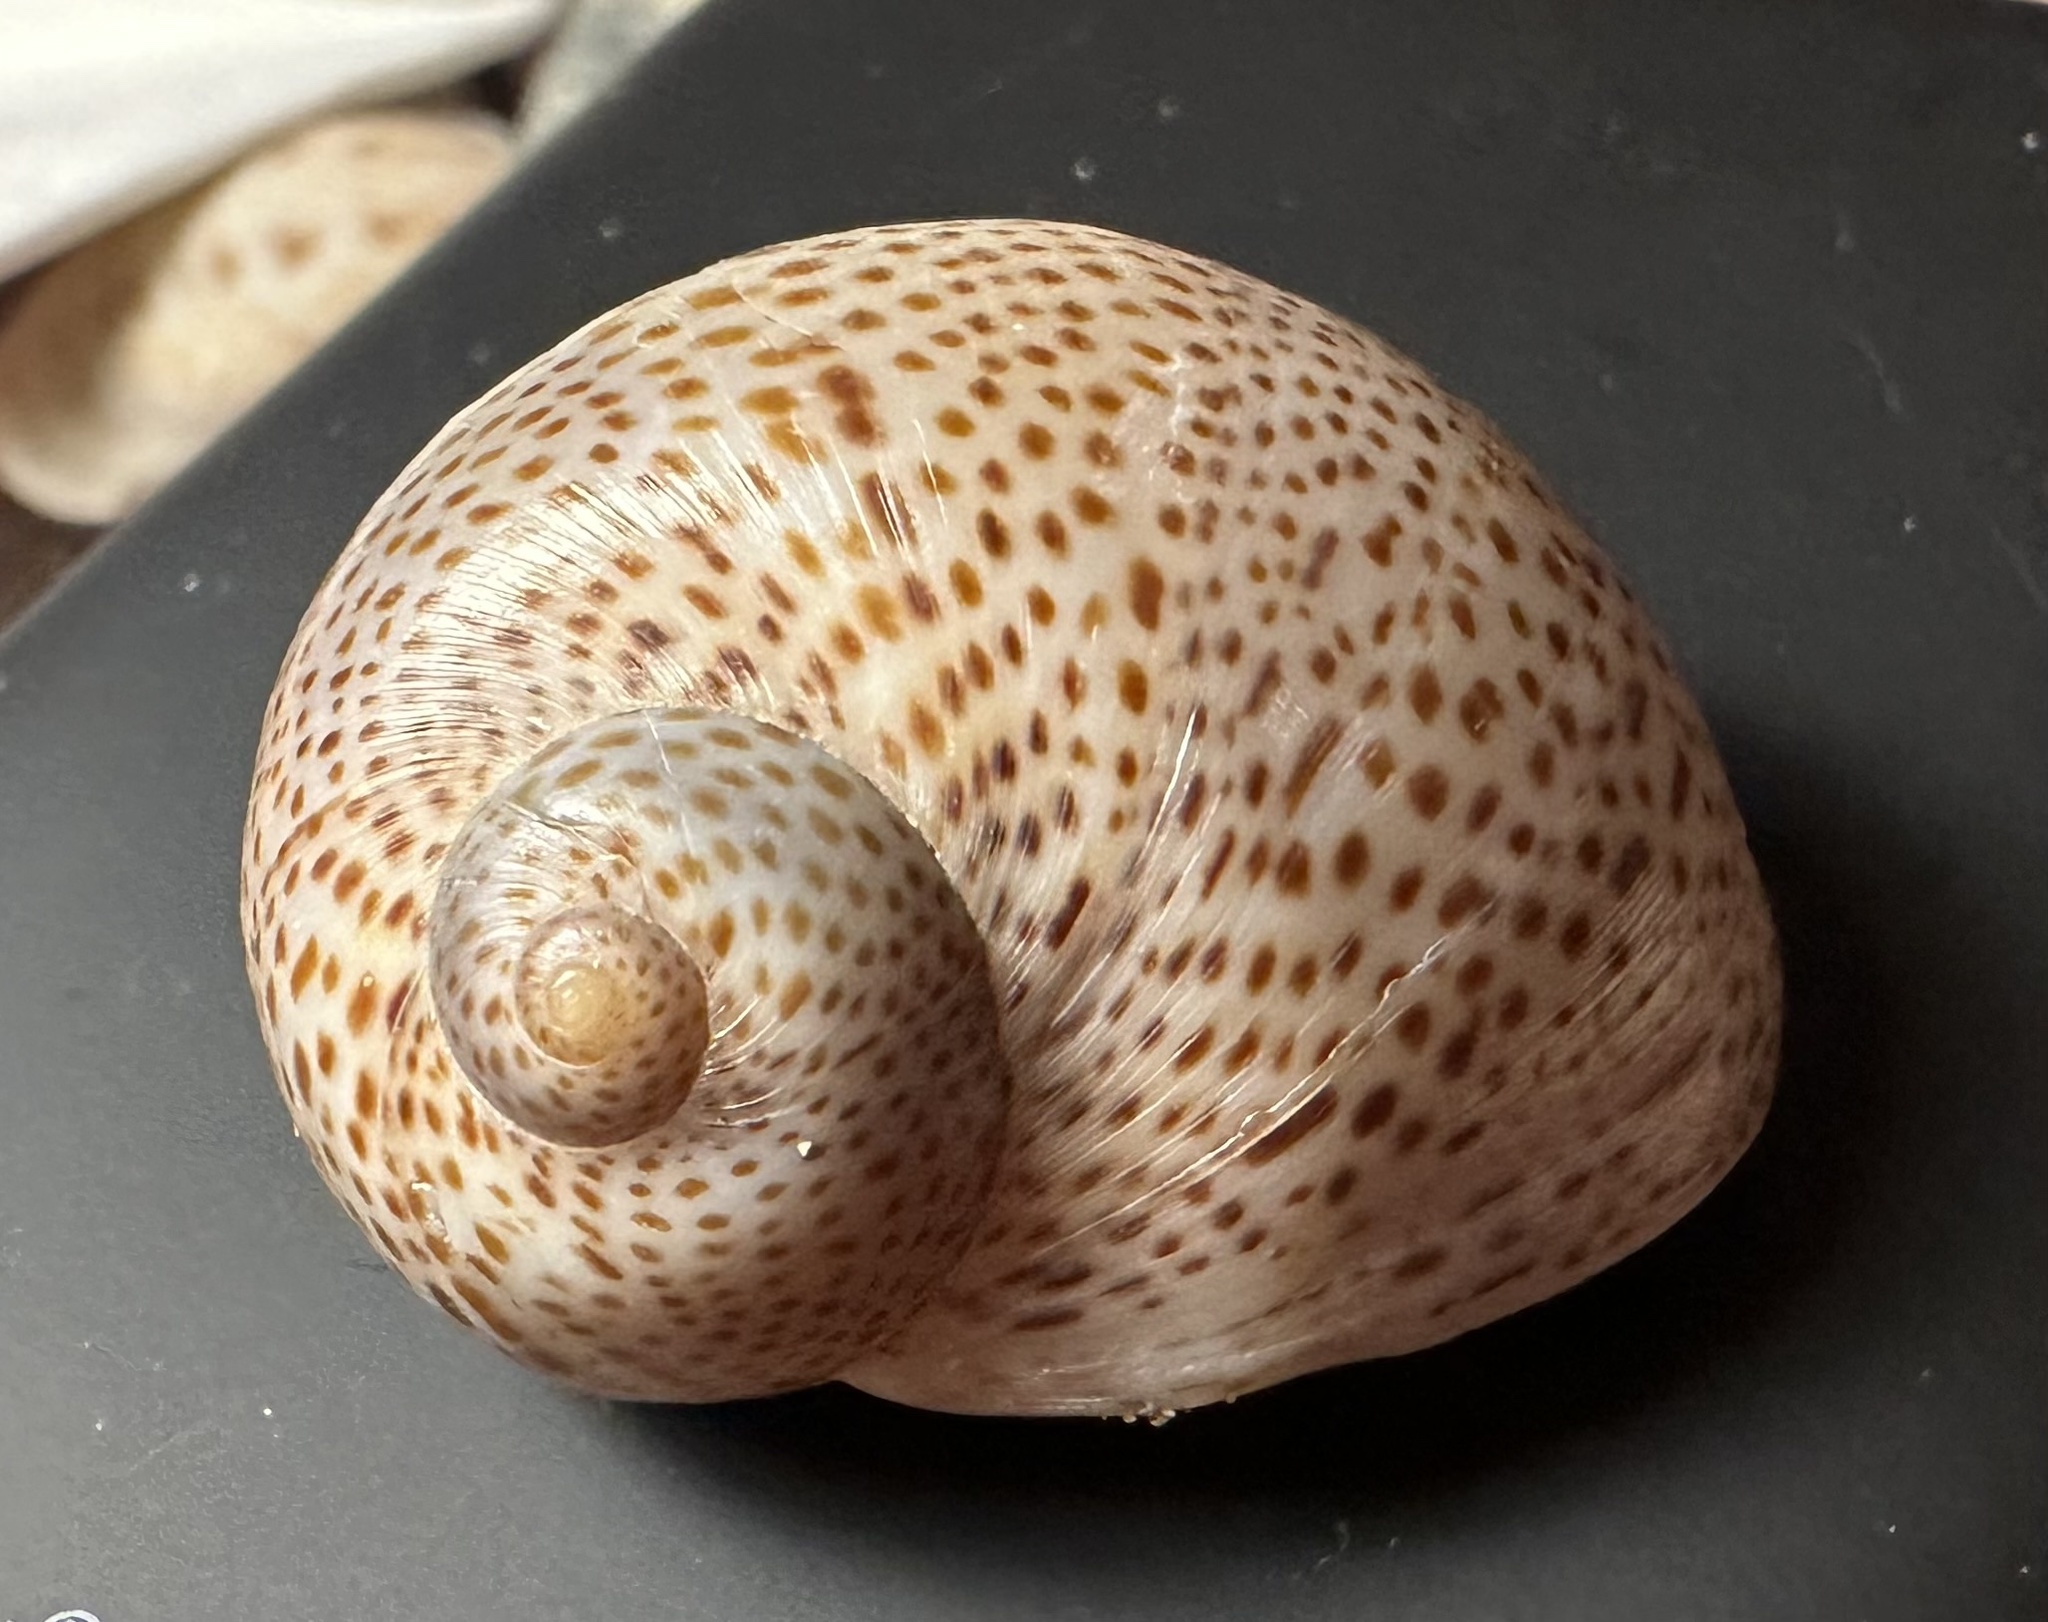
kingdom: Animalia
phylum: Mollusca
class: Gastropoda
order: Littorinimorpha
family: Naticidae
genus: Naticarius
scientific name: Naticarius stercusmuscarum
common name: Fly-speck moonsnail
